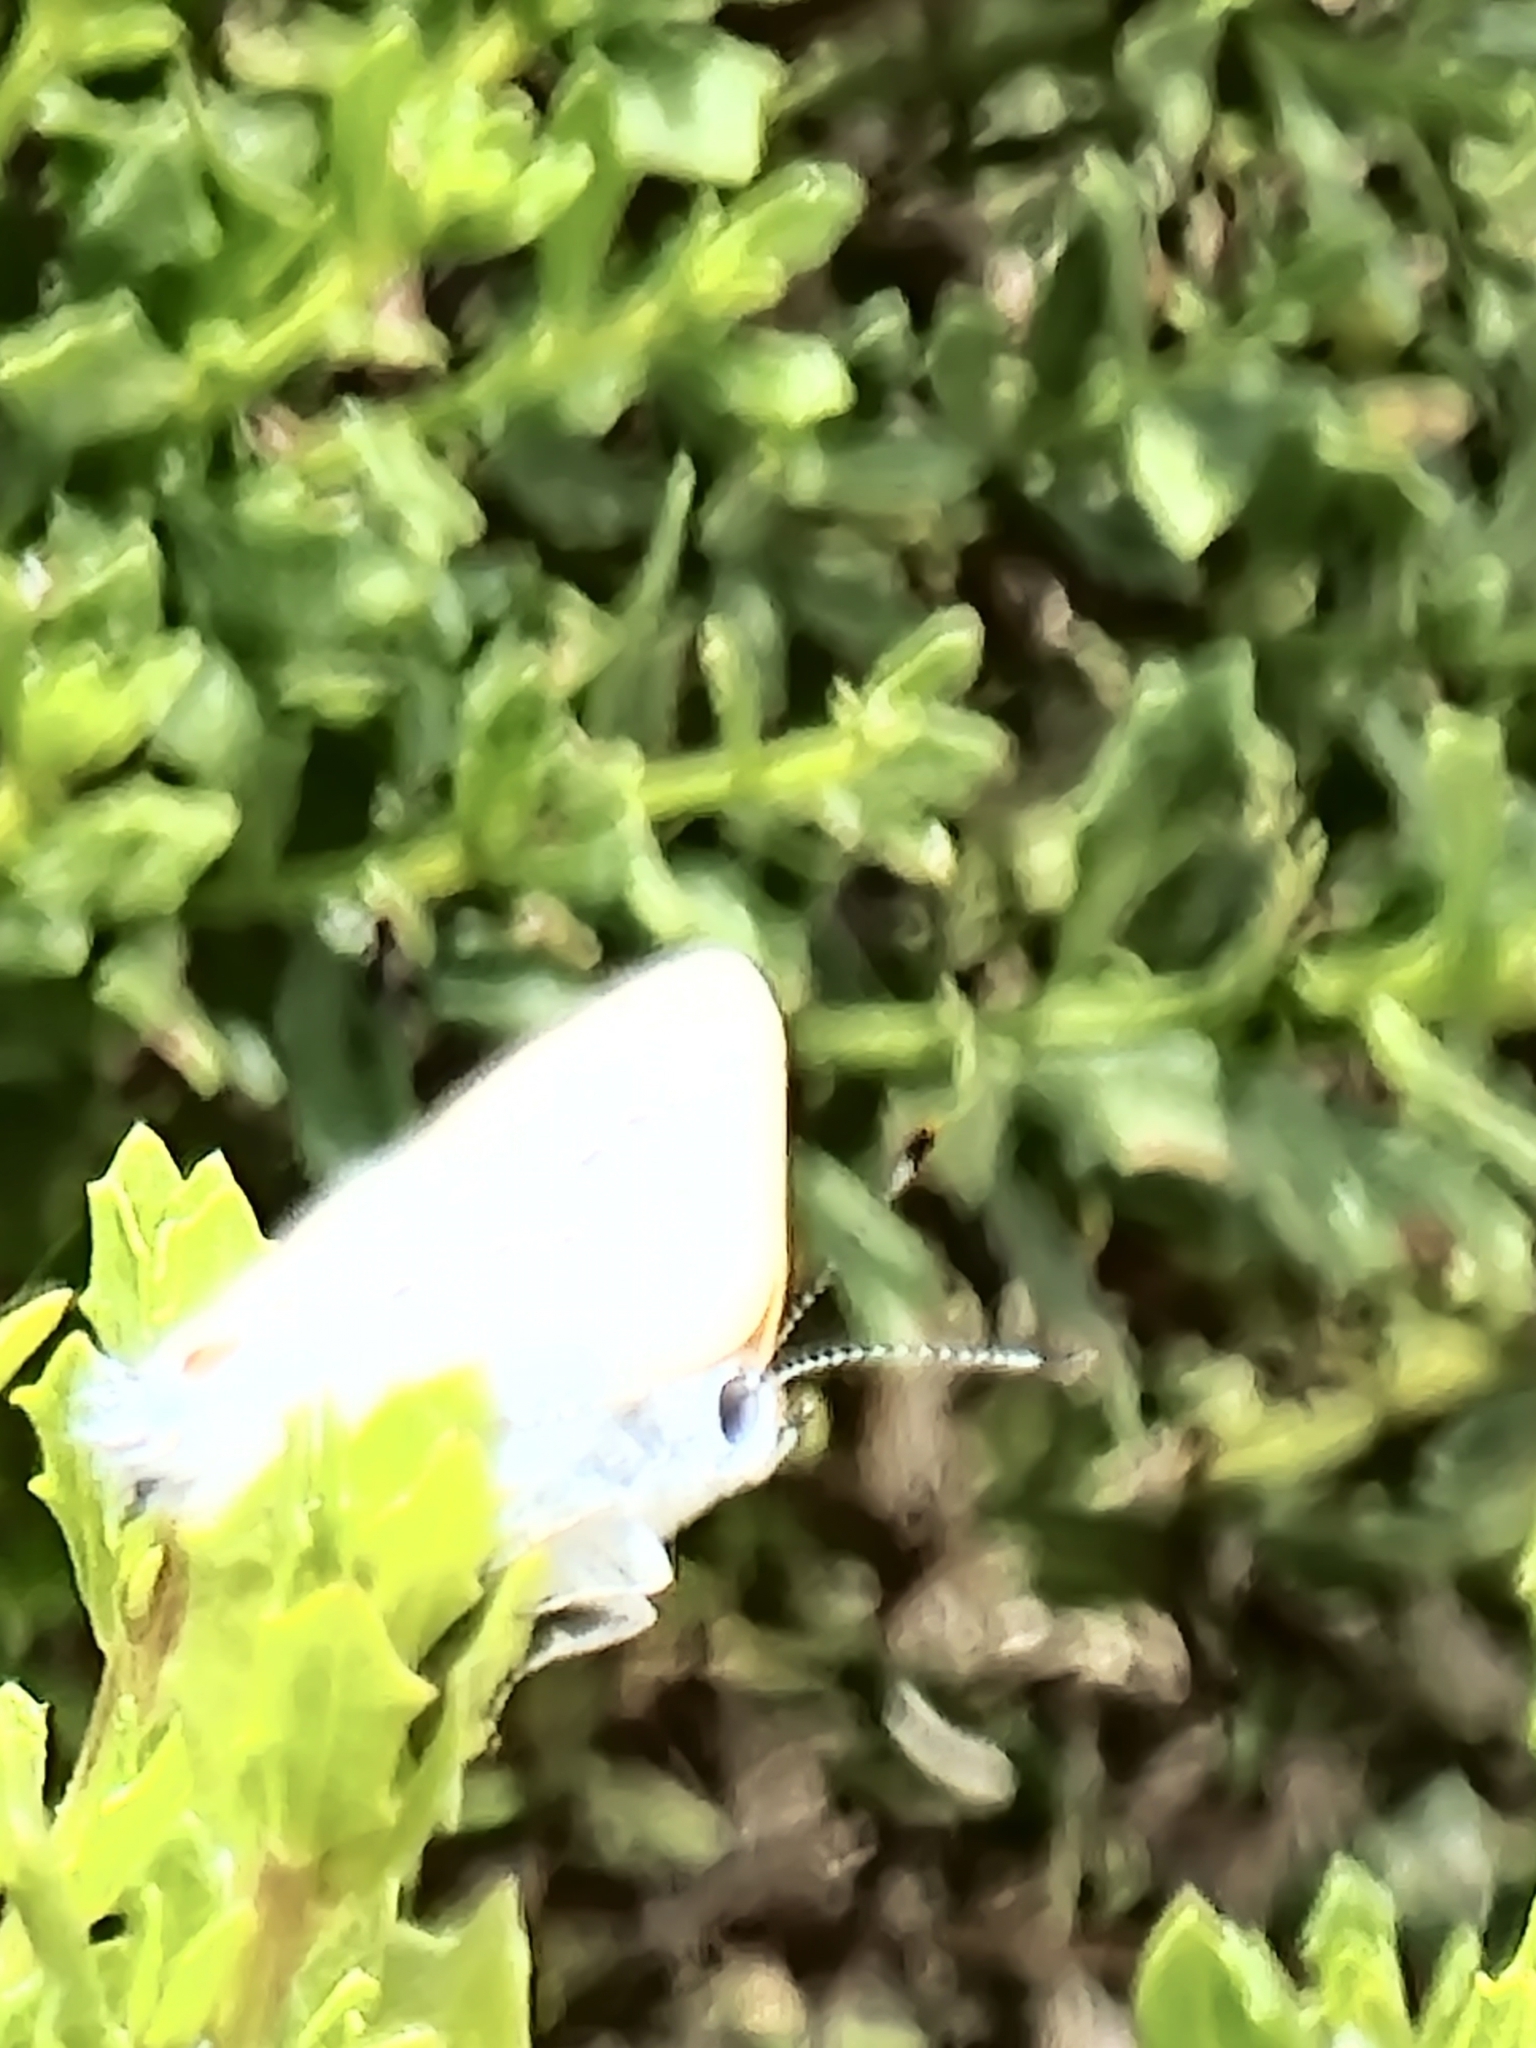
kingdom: Animalia
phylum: Arthropoda
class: Insecta
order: Lepidoptera
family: Lycaenidae
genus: Strymon
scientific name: Strymon sylvinus
